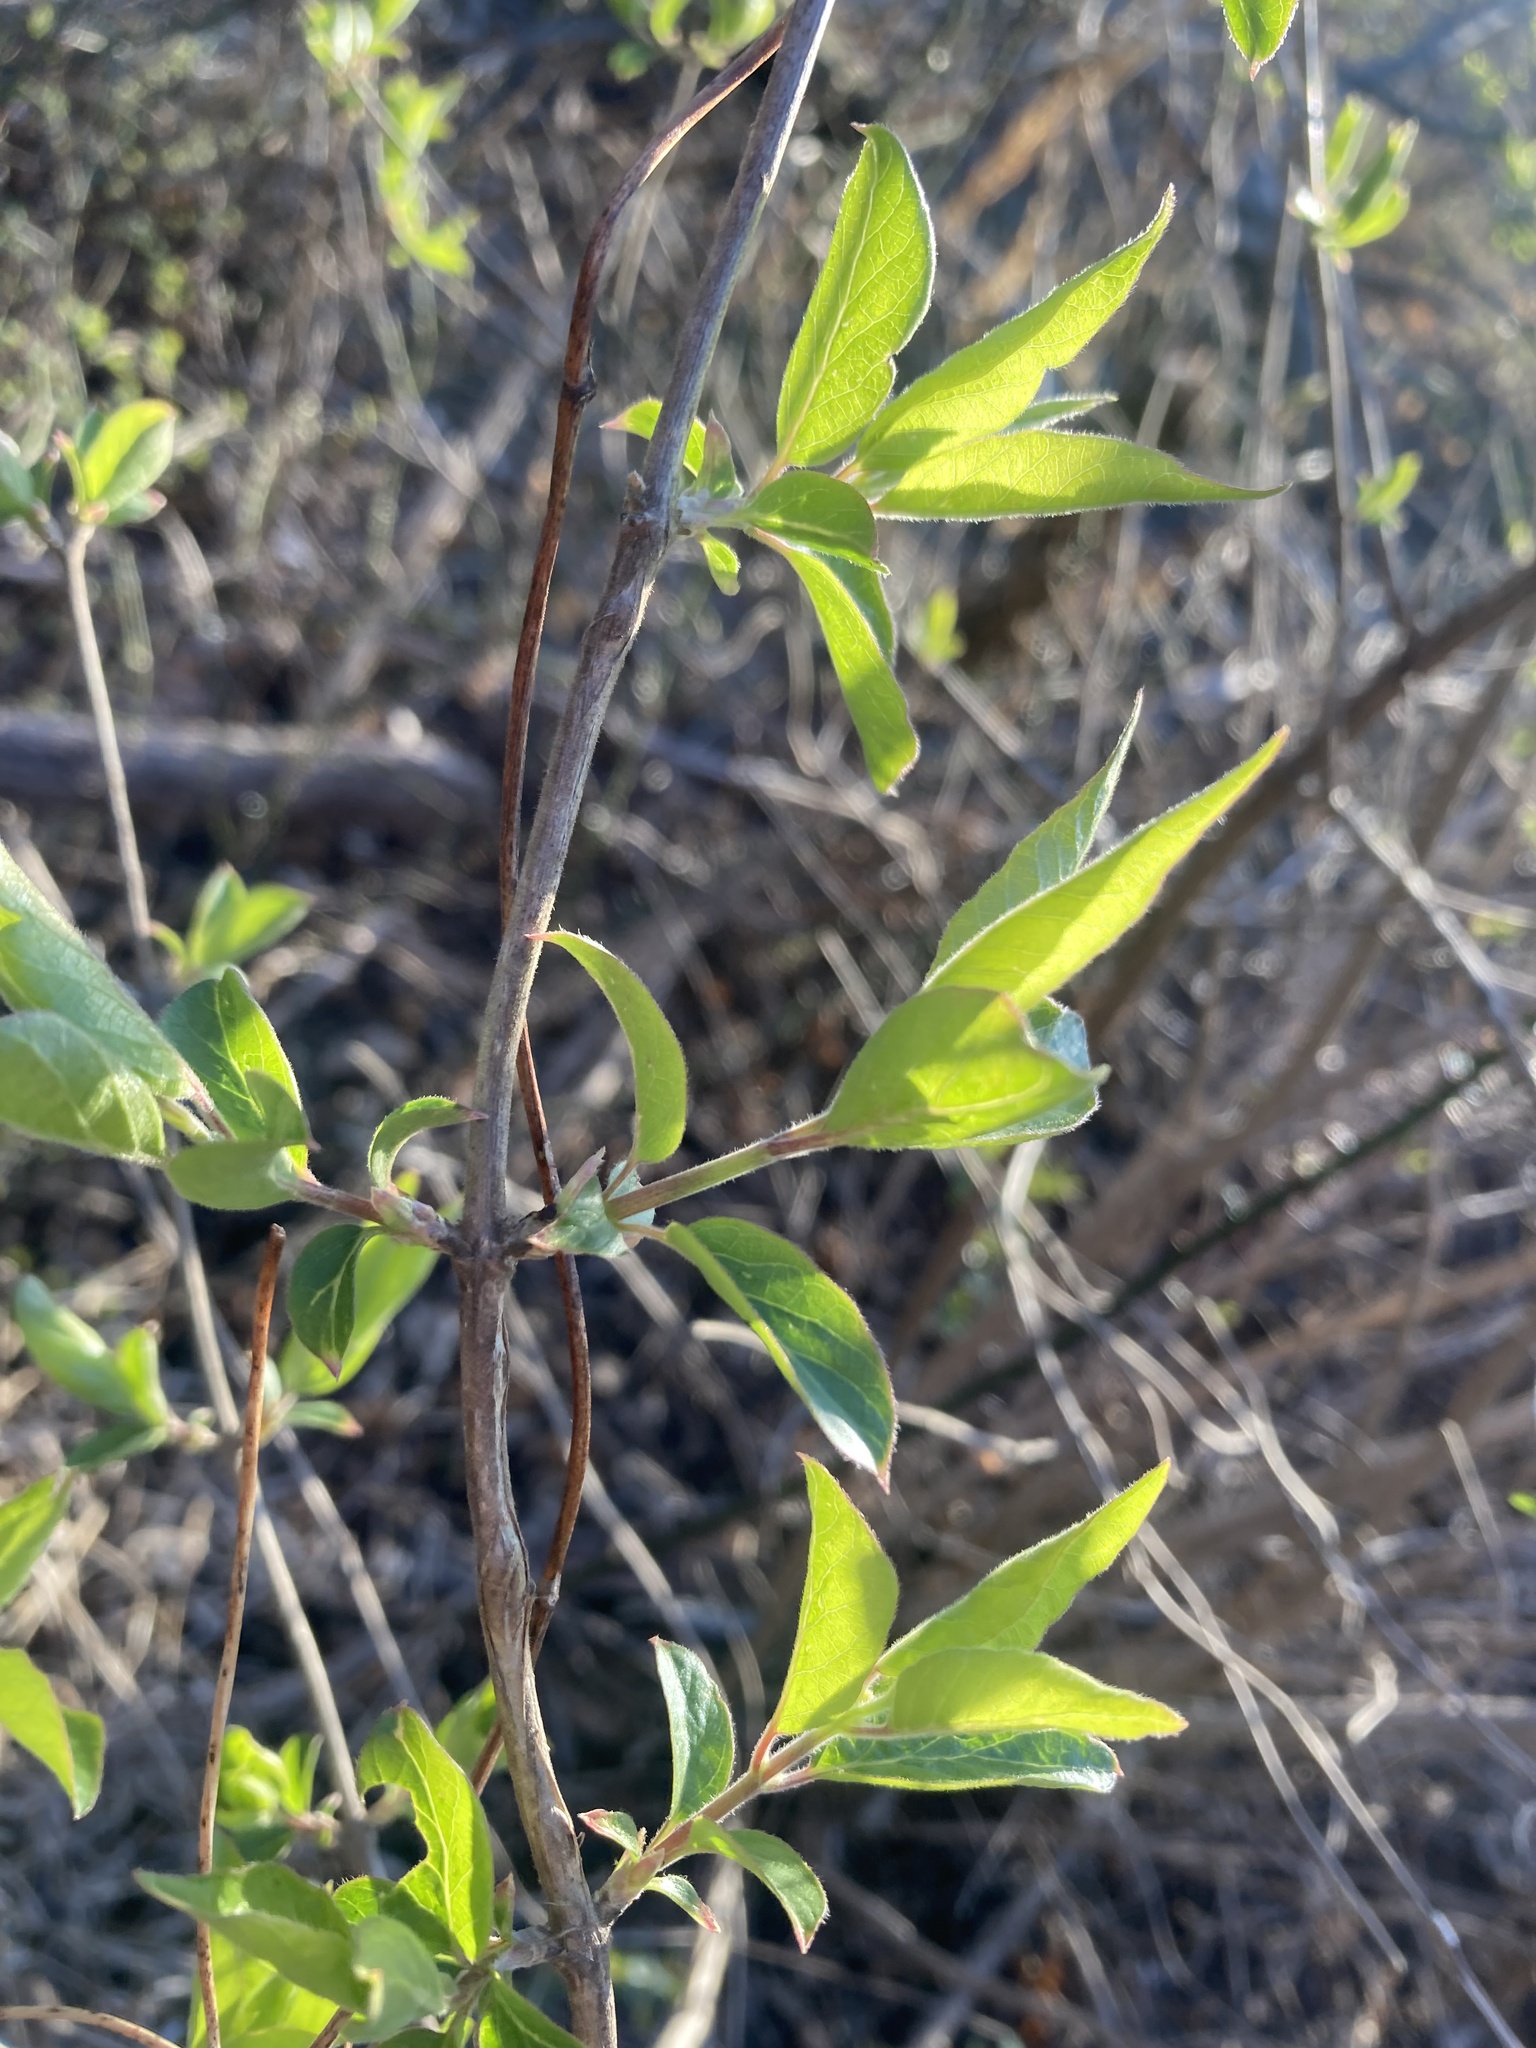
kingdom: Plantae
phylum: Tracheophyta
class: Magnoliopsida
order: Dipsacales
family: Caprifoliaceae
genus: Lonicera
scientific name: Lonicera maackii
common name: Amur honeysuckle
